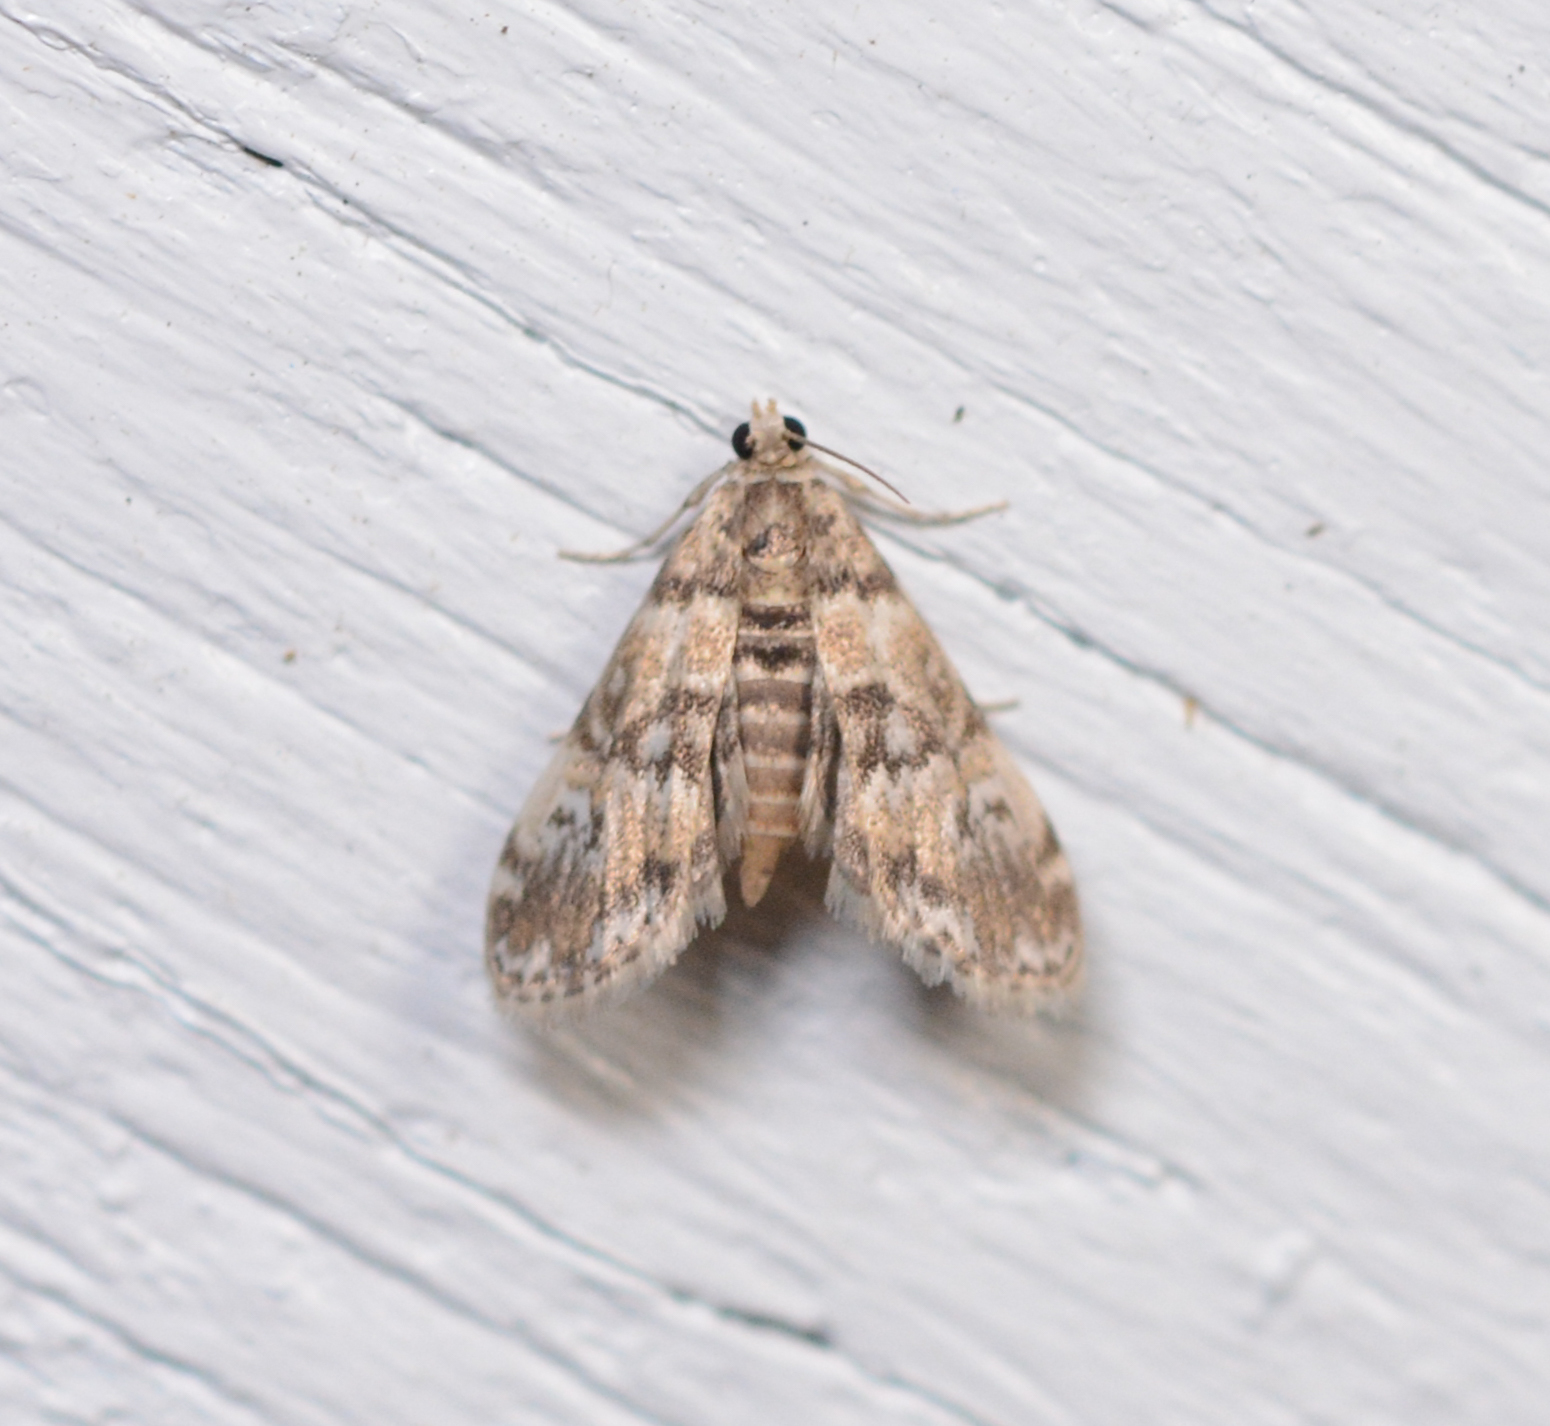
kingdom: Animalia
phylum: Arthropoda
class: Insecta
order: Lepidoptera
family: Crambidae
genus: Elophila
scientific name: Elophila obliteralis
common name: Waterlily leafcutter moth
